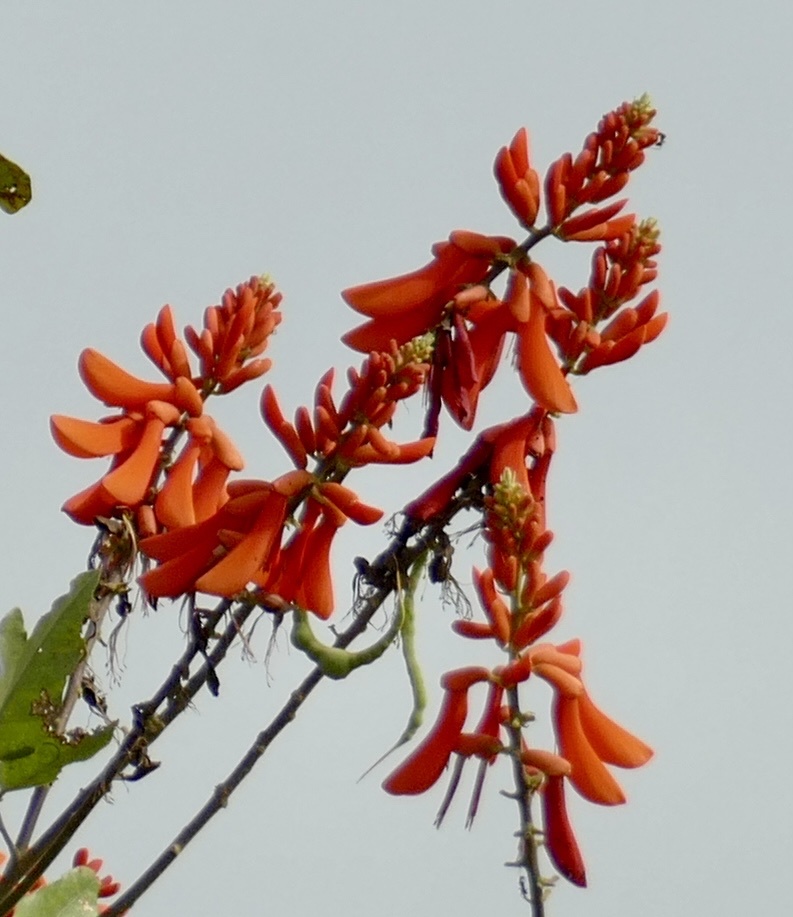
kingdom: Plantae
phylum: Tracheophyta
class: Magnoliopsida
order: Fabales
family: Fabaceae
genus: Erythrina
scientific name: Erythrina senegalensis
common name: Senegal coraltree
